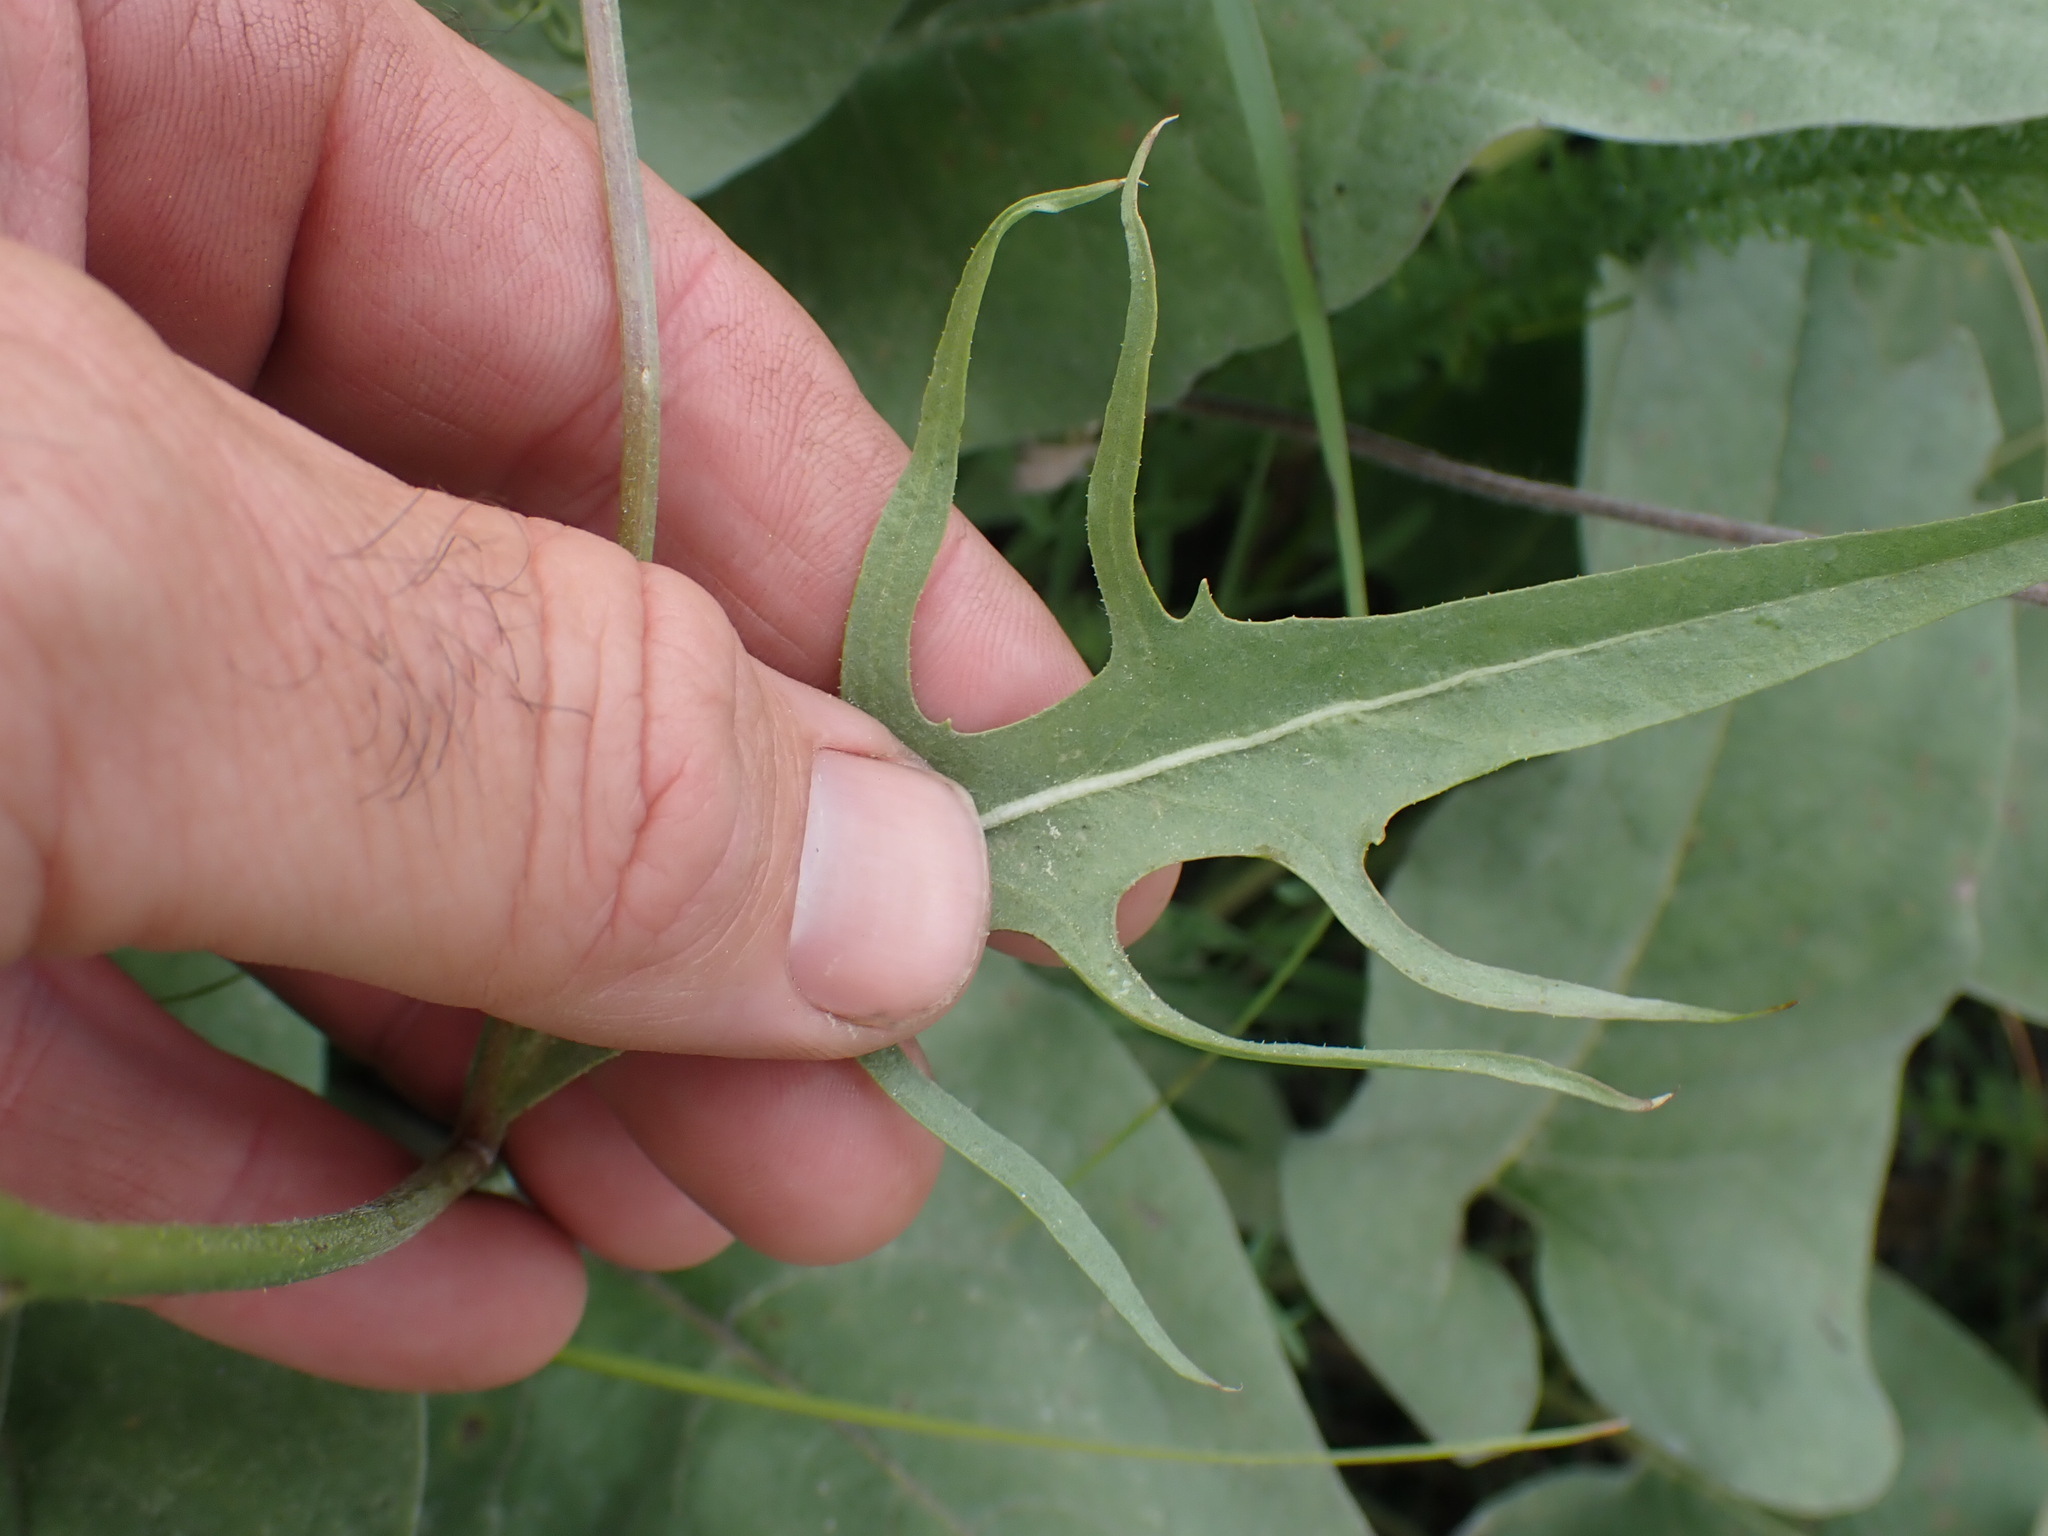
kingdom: Plantae
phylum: Tracheophyta
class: Magnoliopsida
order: Asterales
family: Asteraceae
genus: Crepis
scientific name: Crepis atribarba
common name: Dark hawk's-beard
